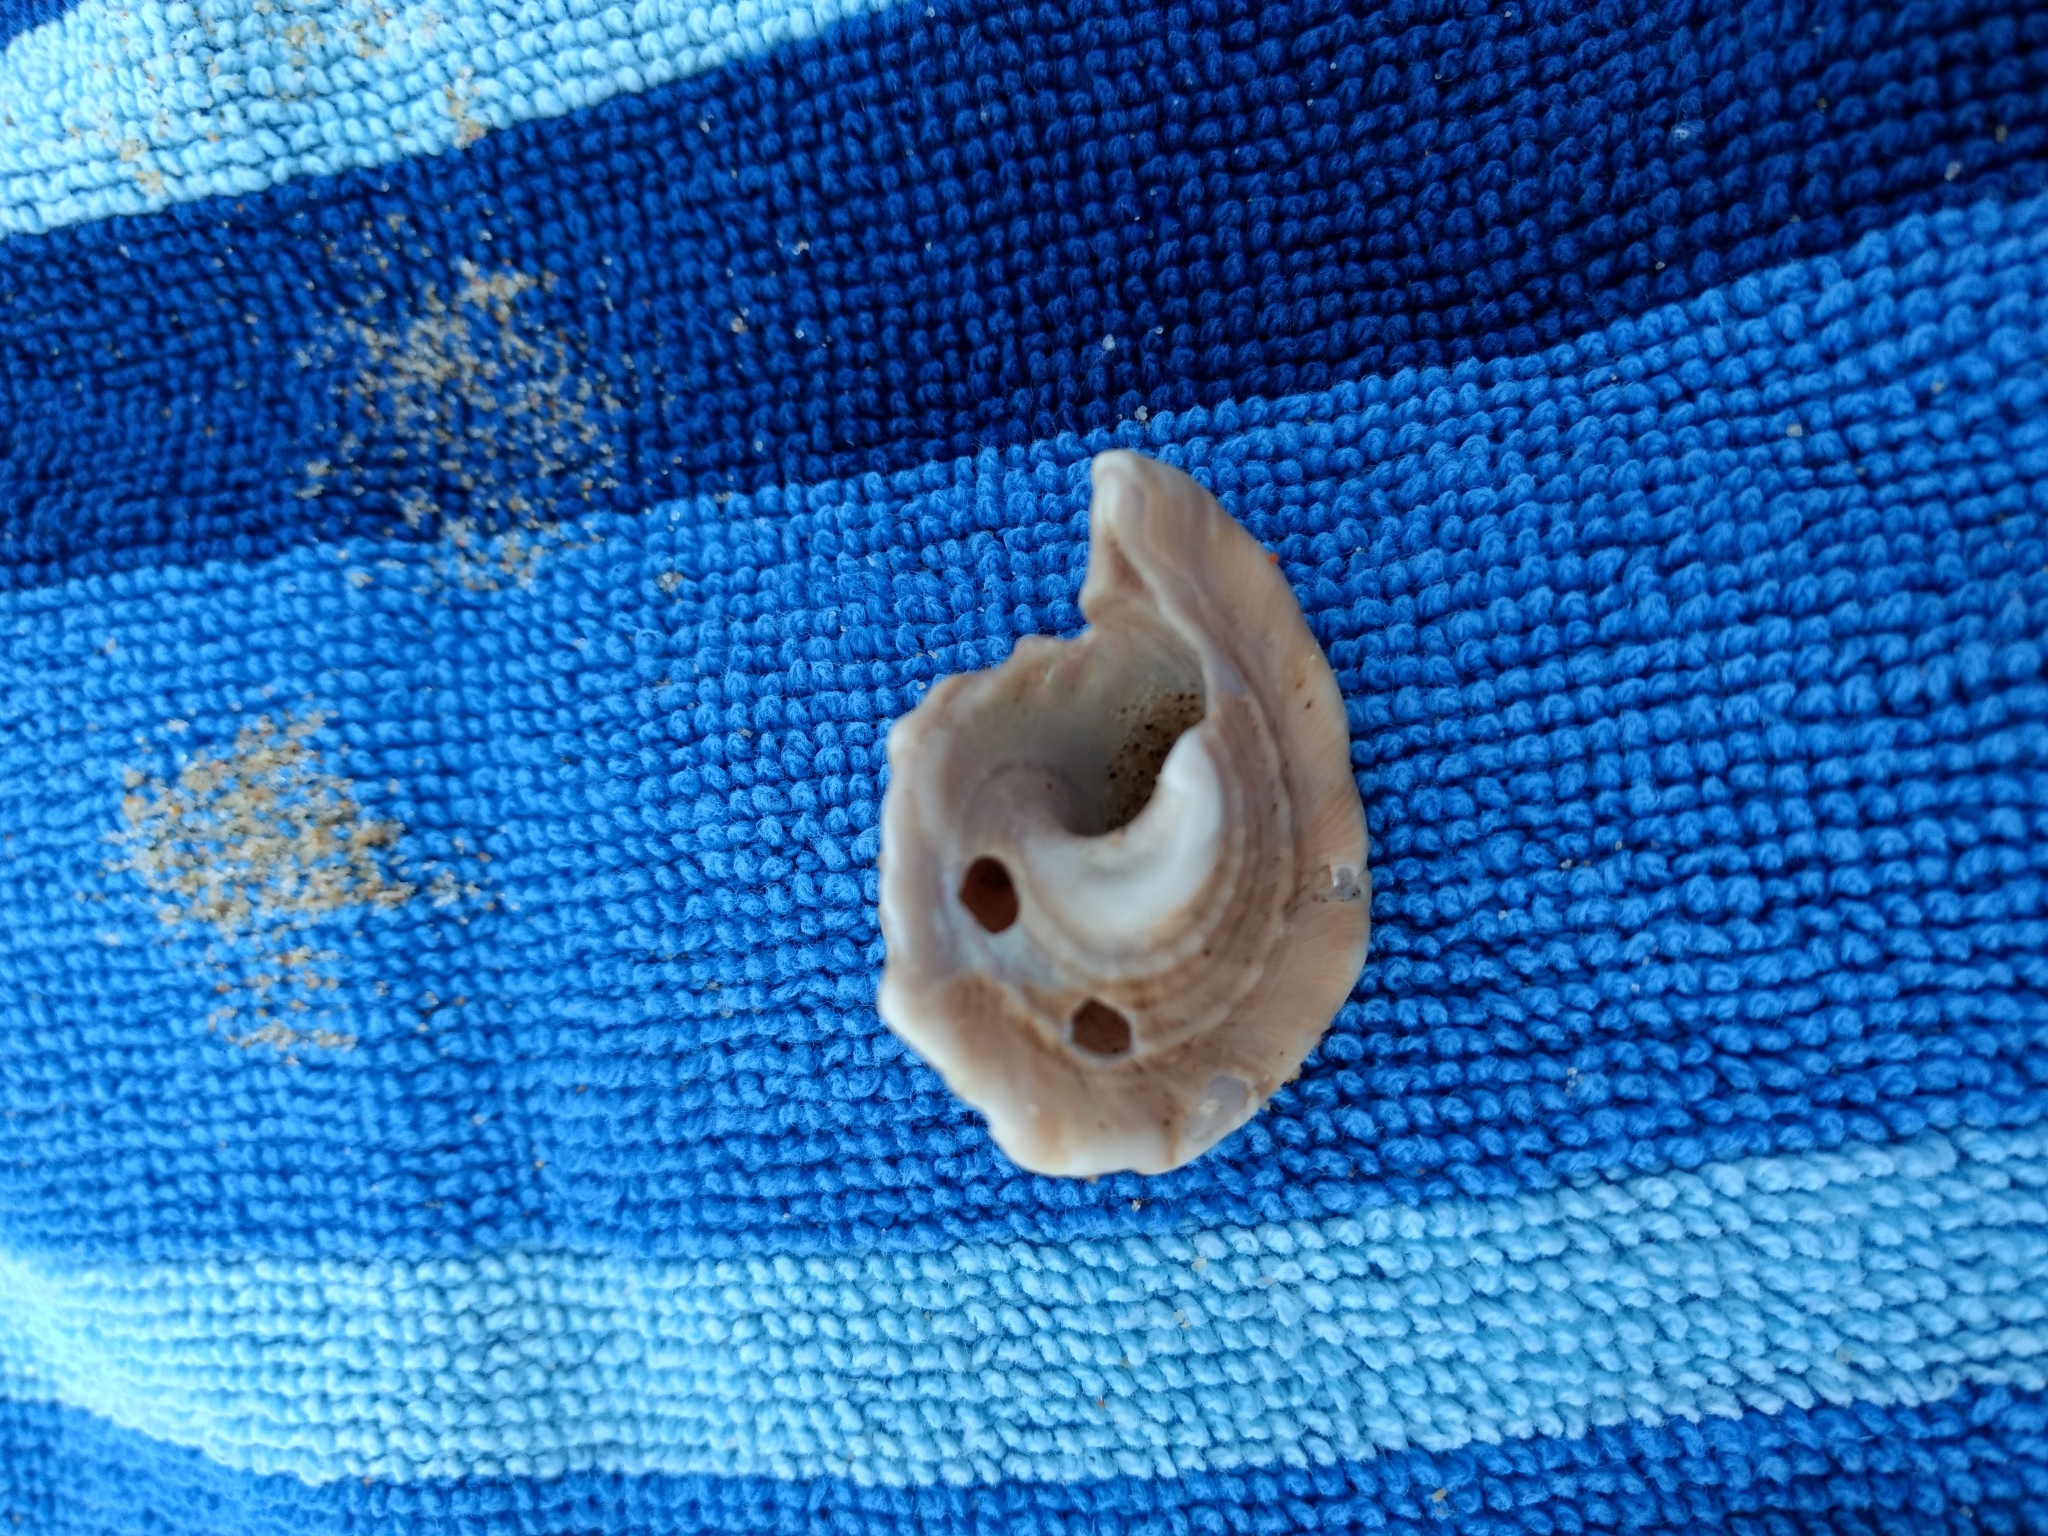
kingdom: Animalia
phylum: Mollusca
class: Gastropoda
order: Trochida
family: Turbinidae
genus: Megastraea
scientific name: Megastraea undosa
